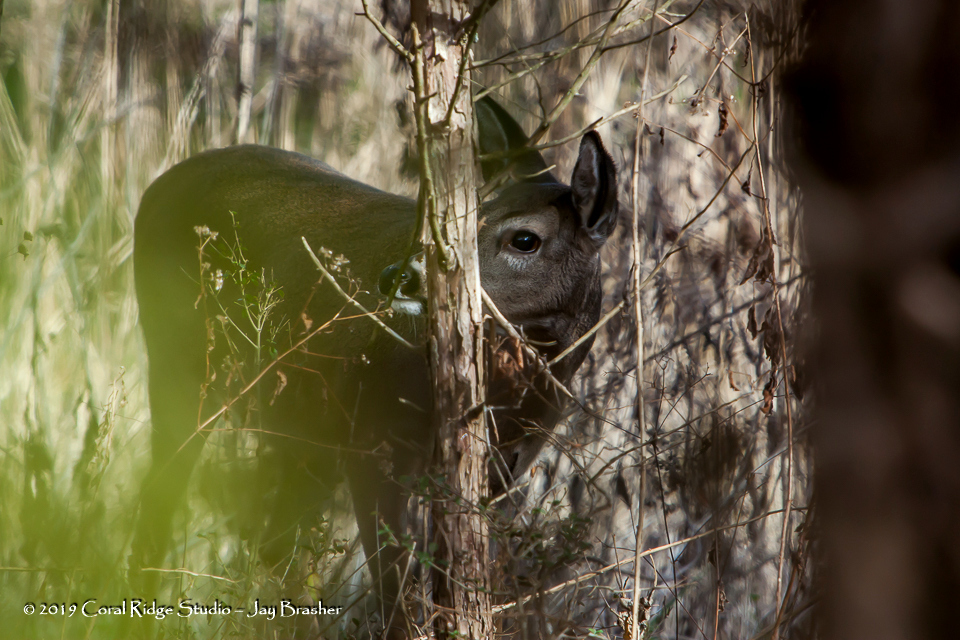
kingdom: Animalia
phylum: Chordata
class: Mammalia
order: Artiodactyla
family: Cervidae
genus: Odocoileus
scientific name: Odocoileus virginianus
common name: White-tailed deer
